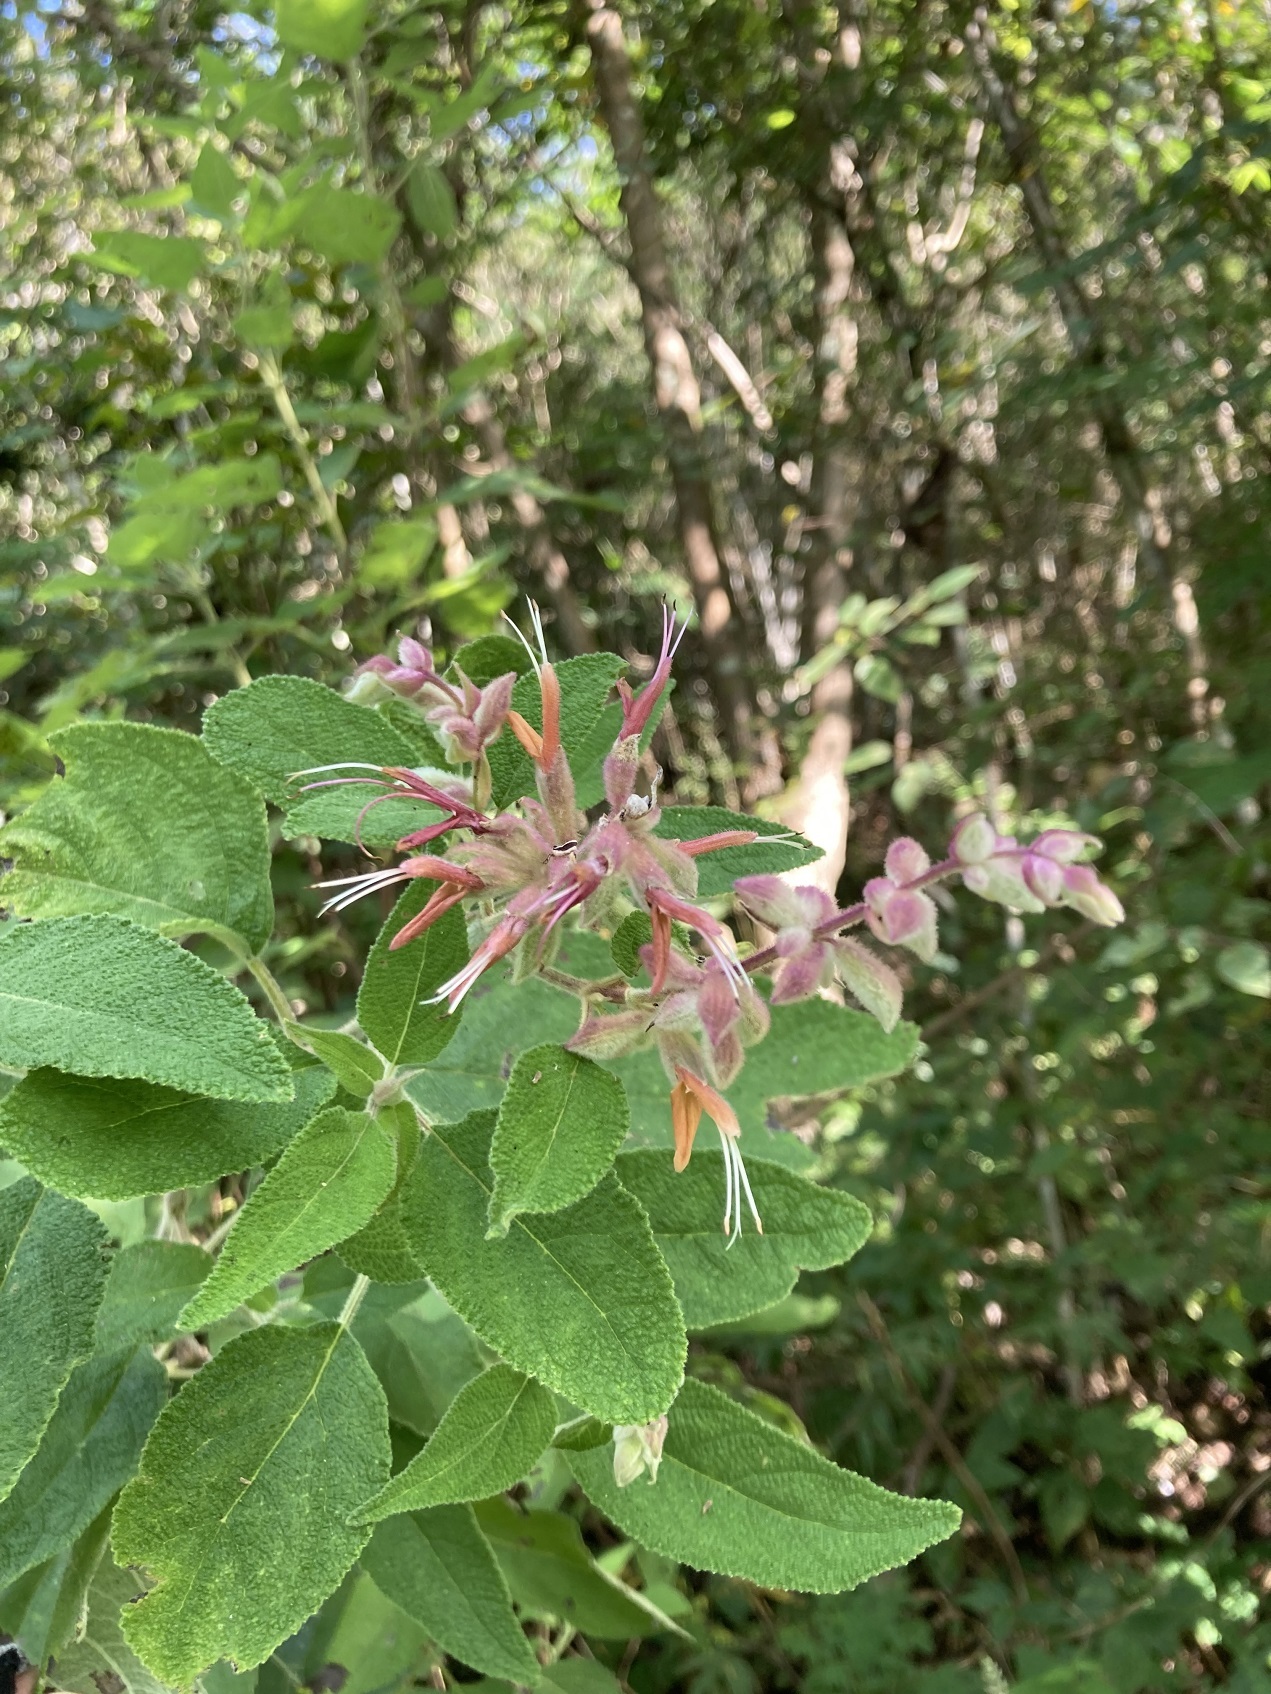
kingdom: Plantae
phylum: Tracheophyta
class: Magnoliopsida
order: Lamiales
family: Lamiaceae
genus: Salvia
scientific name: Salvia lasiantha
